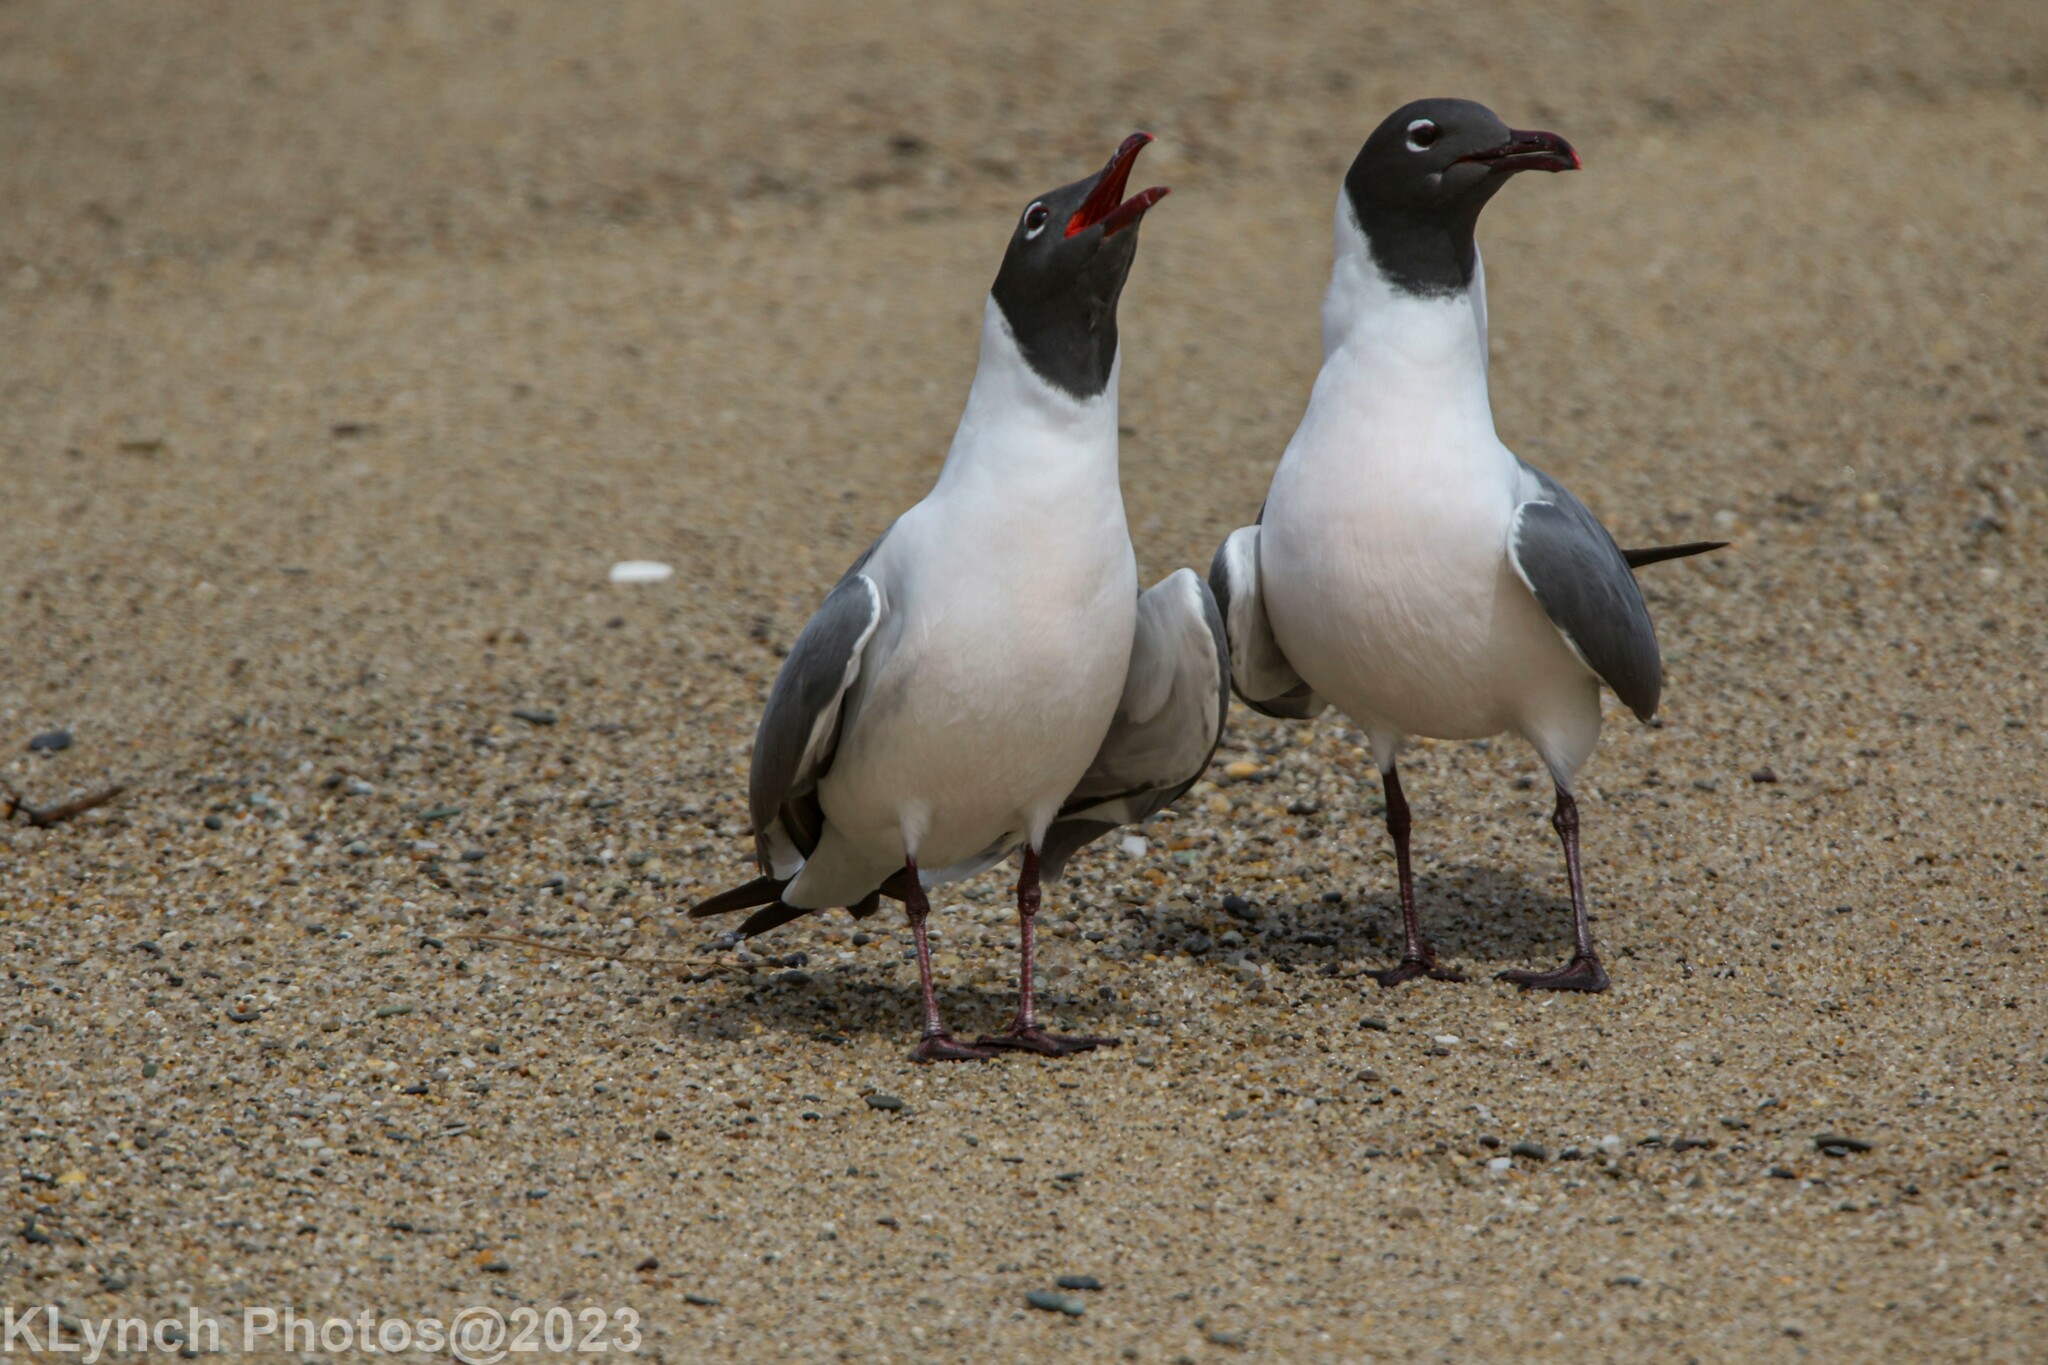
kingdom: Animalia
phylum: Chordata
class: Aves
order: Charadriiformes
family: Laridae
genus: Leucophaeus
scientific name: Leucophaeus atricilla
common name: Laughing gull
